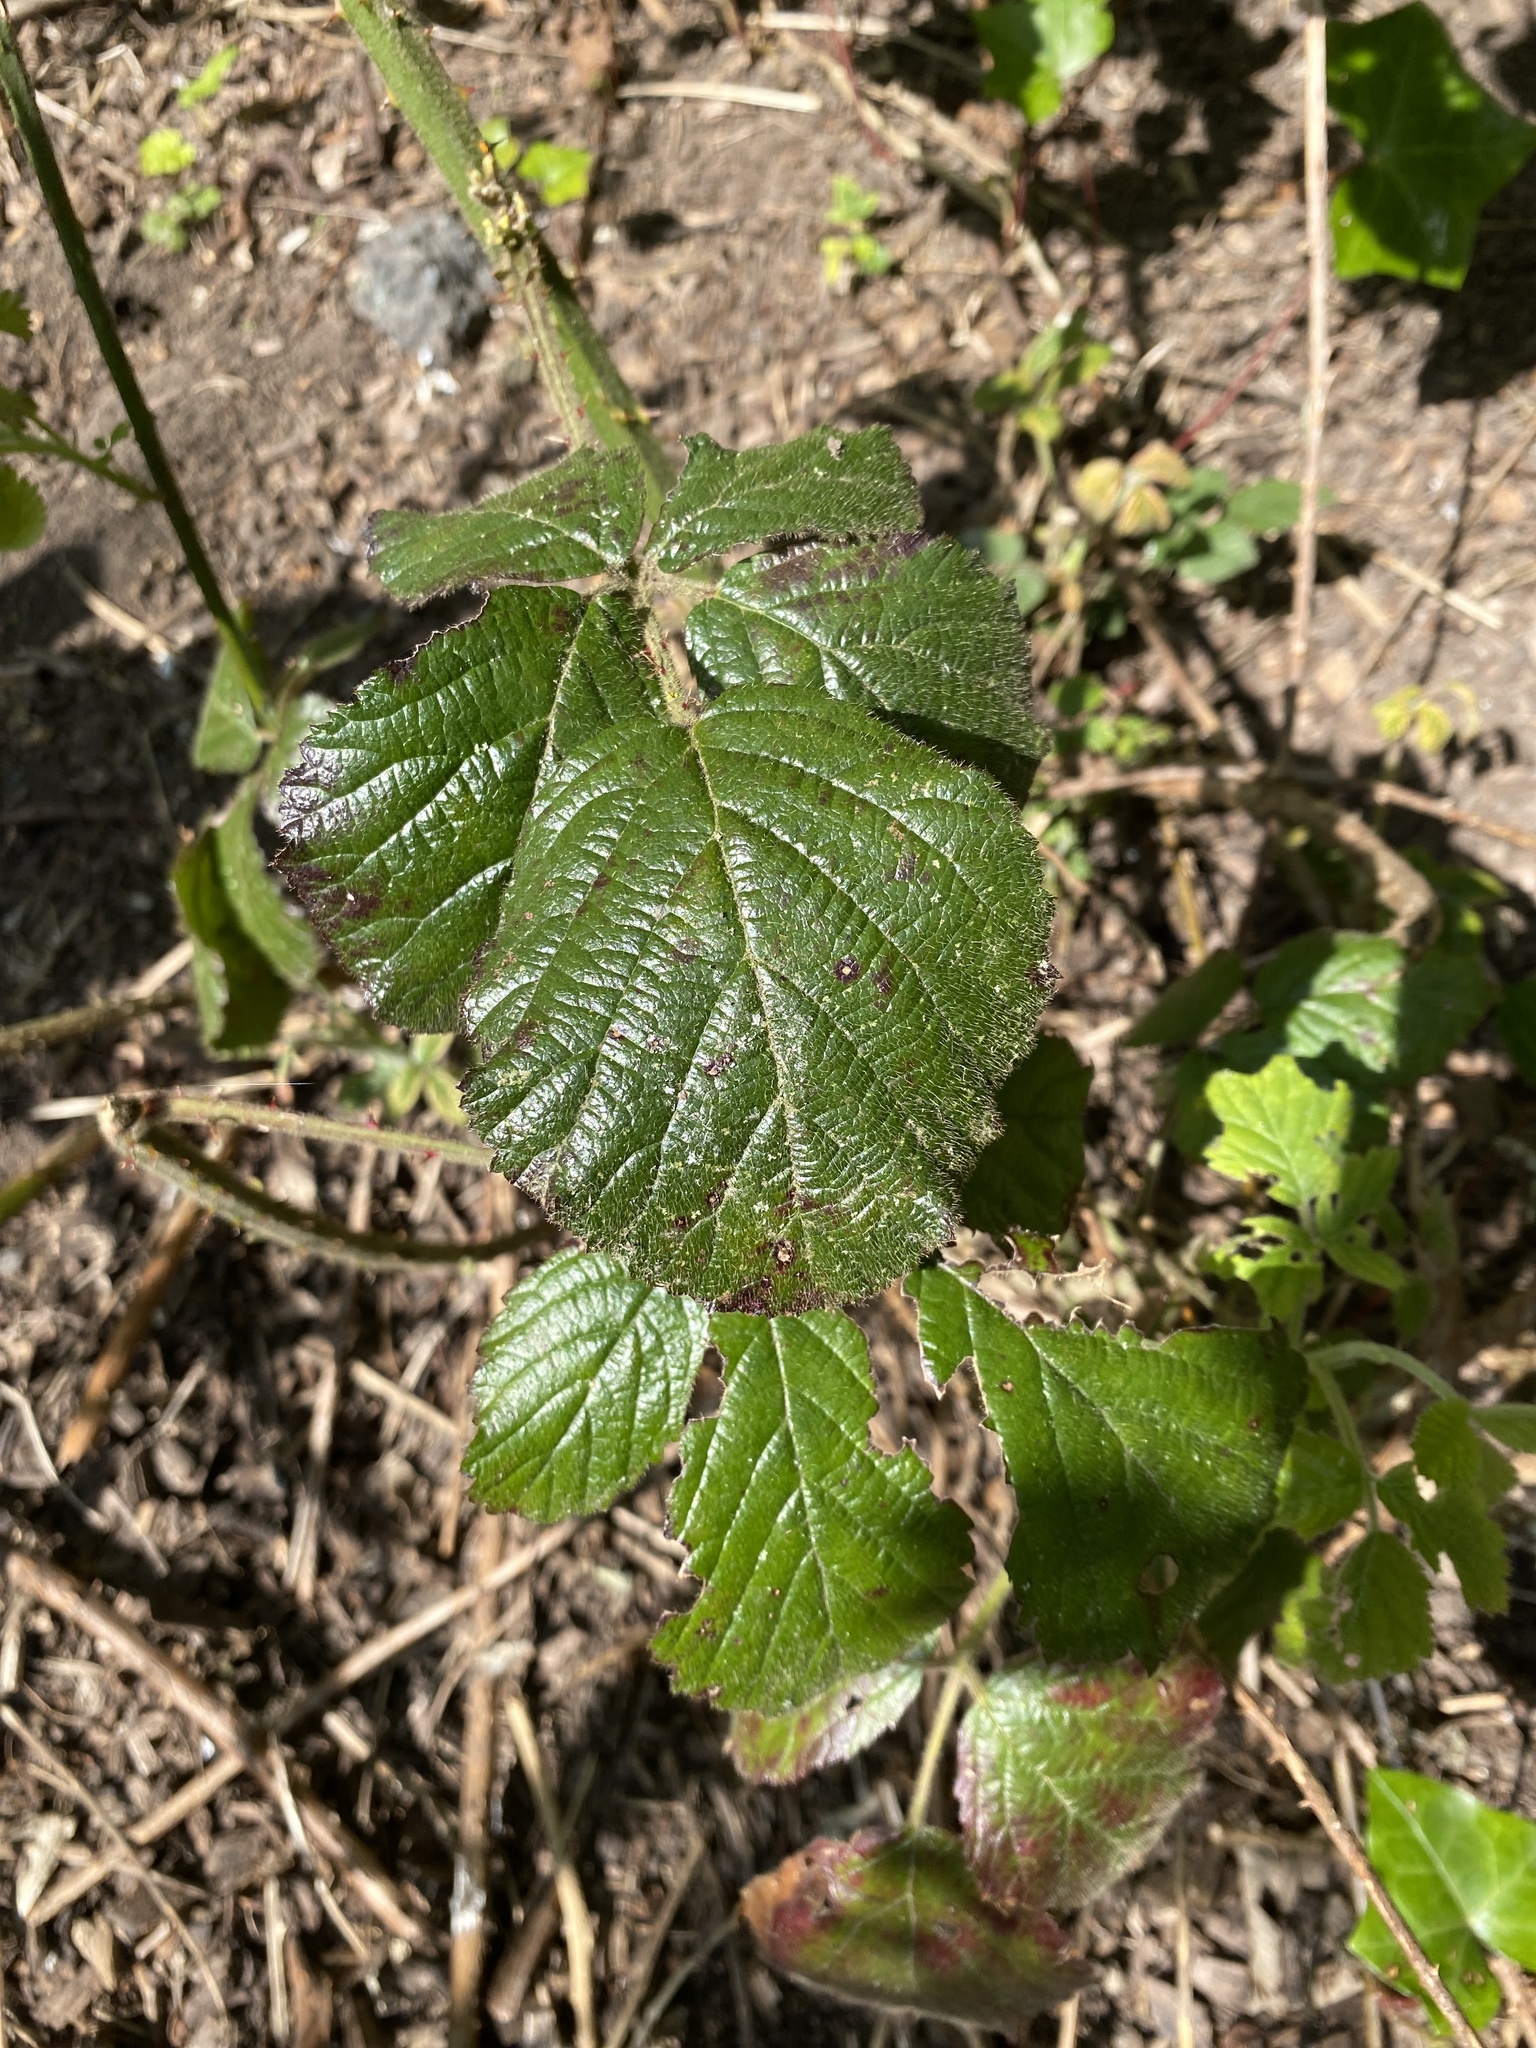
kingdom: Plantae
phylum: Tracheophyta
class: Magnoliopsida
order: Rosales
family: Rosaceae
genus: Rubus
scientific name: Rubus
